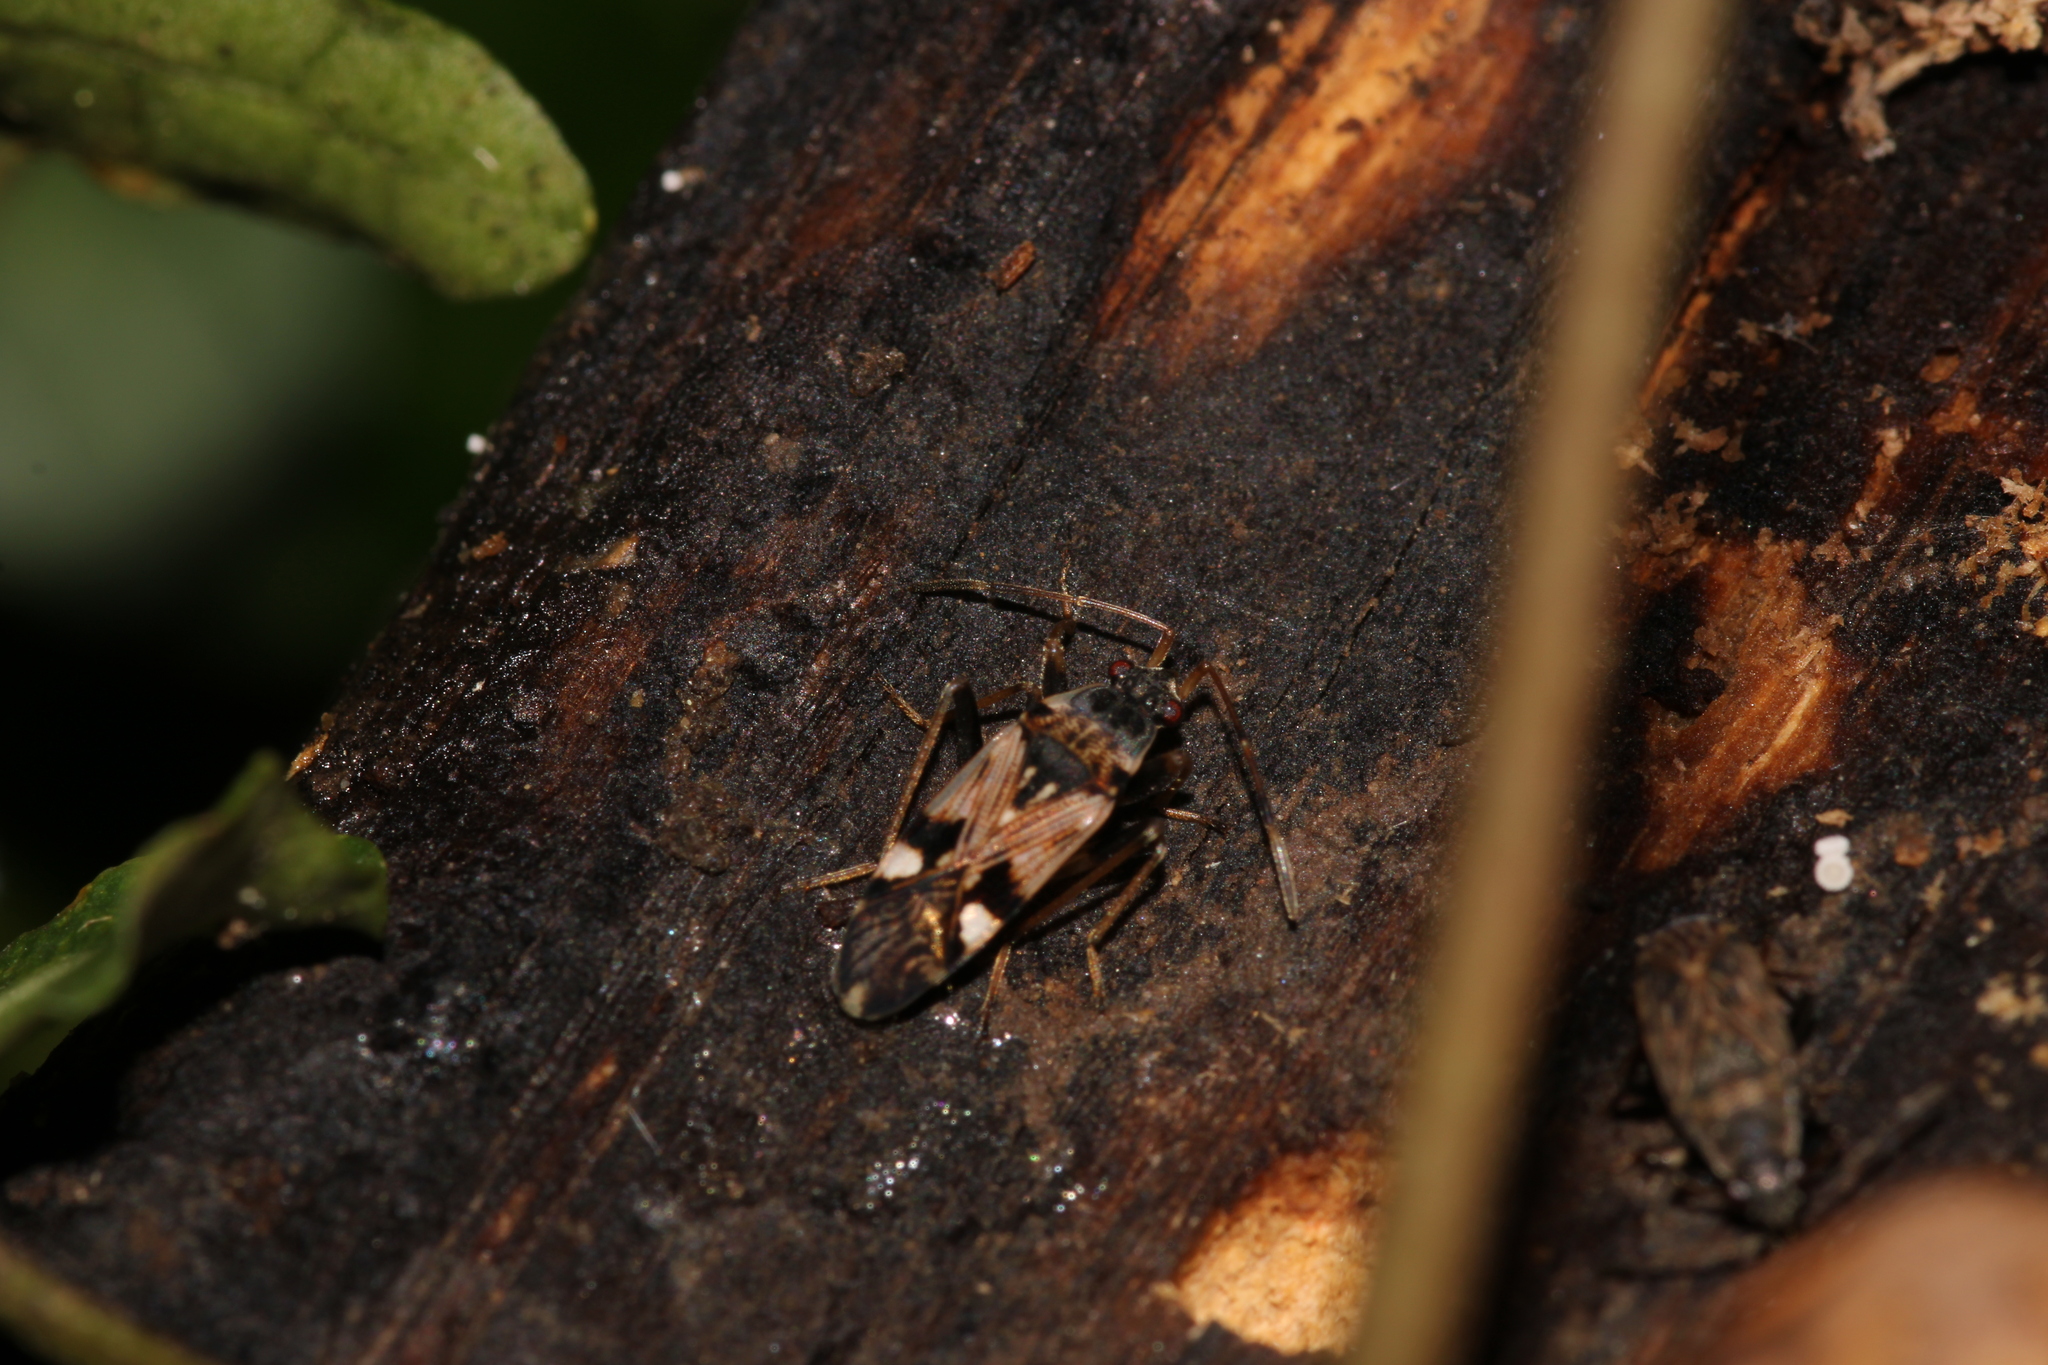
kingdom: Animalia
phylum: Arthropoda
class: Insecta
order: Hemiptera
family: Rhyparochromidae
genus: Beosus
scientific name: Beosus maritimus
